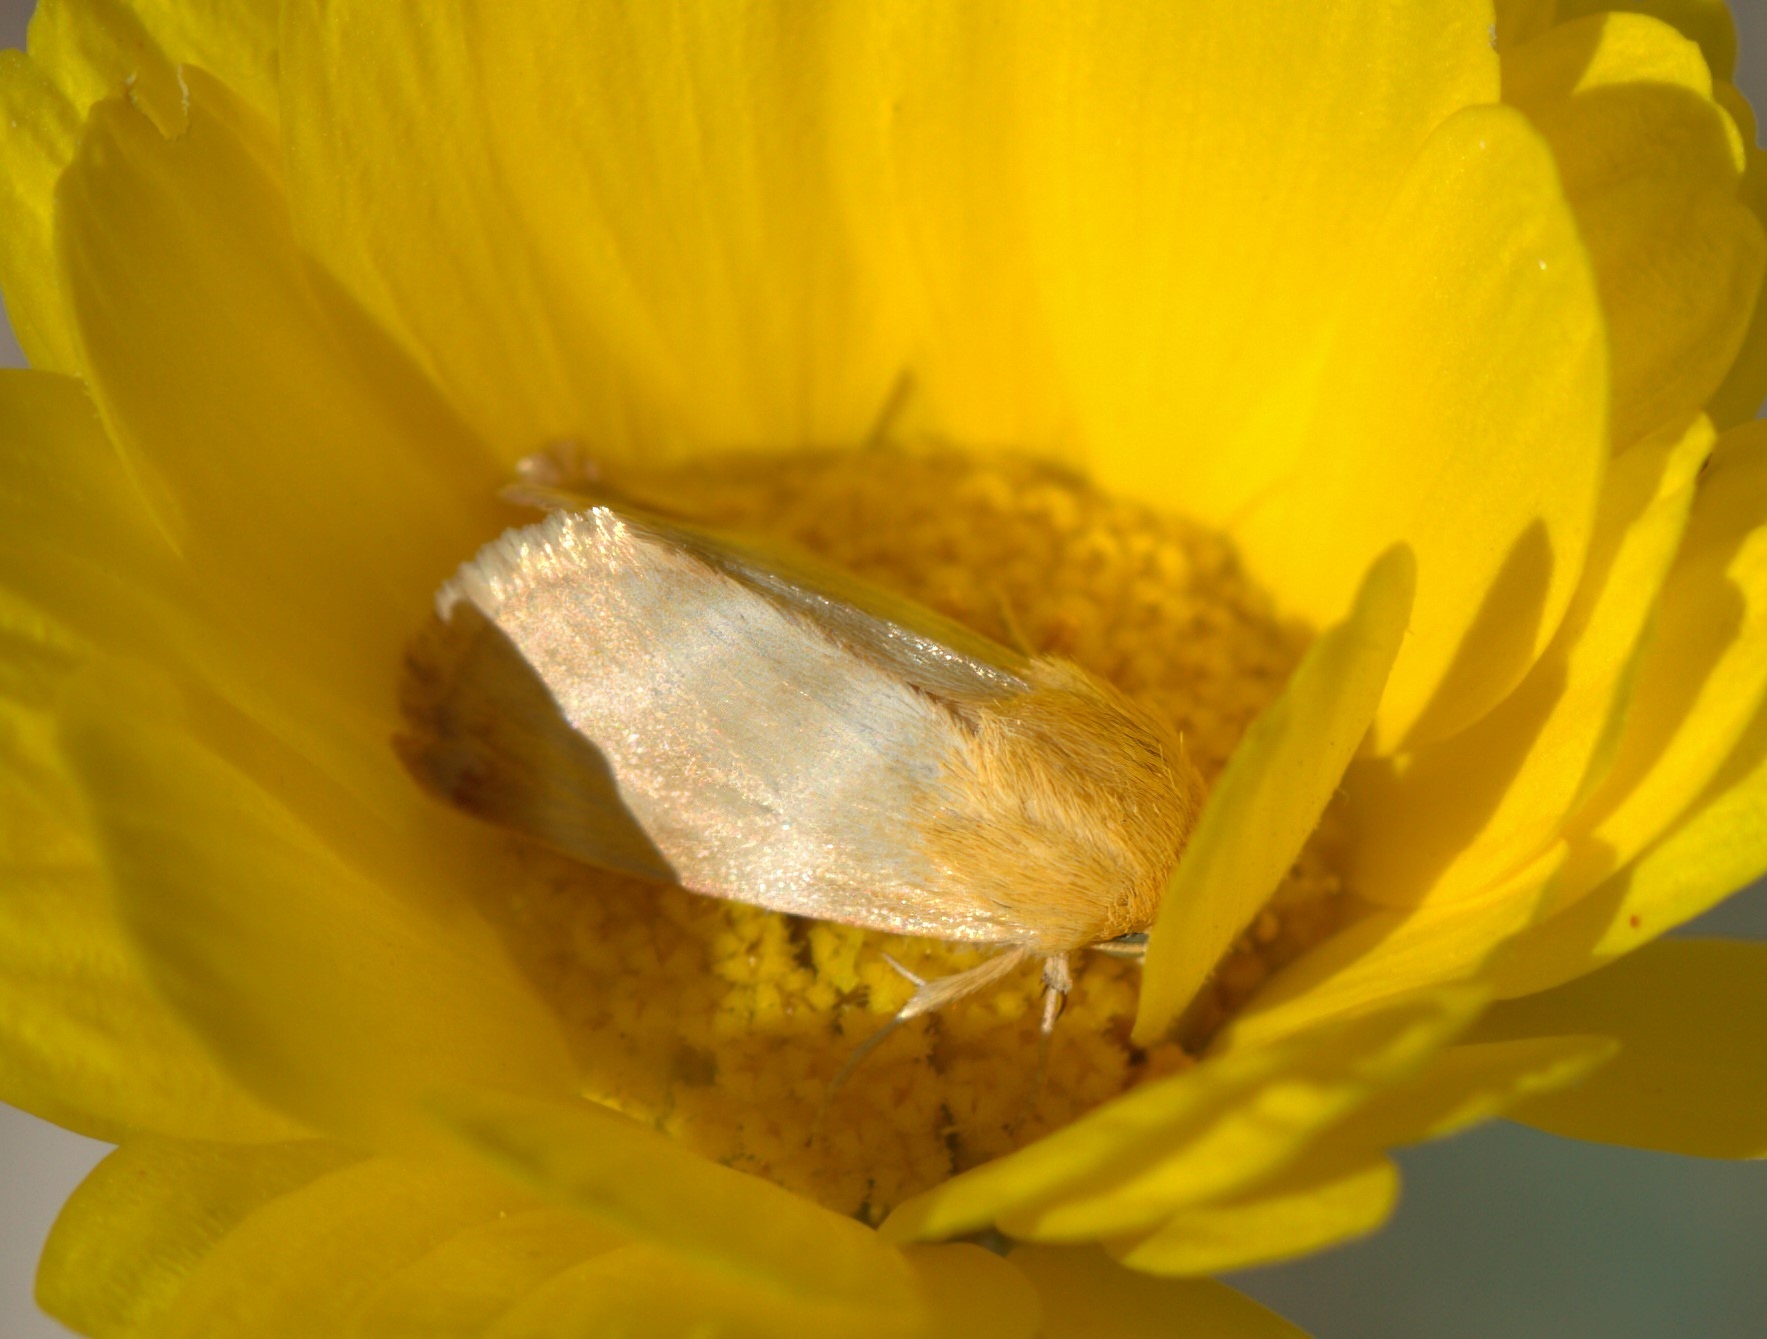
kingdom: Animalia
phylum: Arthropoda
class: Insecta
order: Lepidoptera
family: Noctuidae
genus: Schinia
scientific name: Schinia miniana
